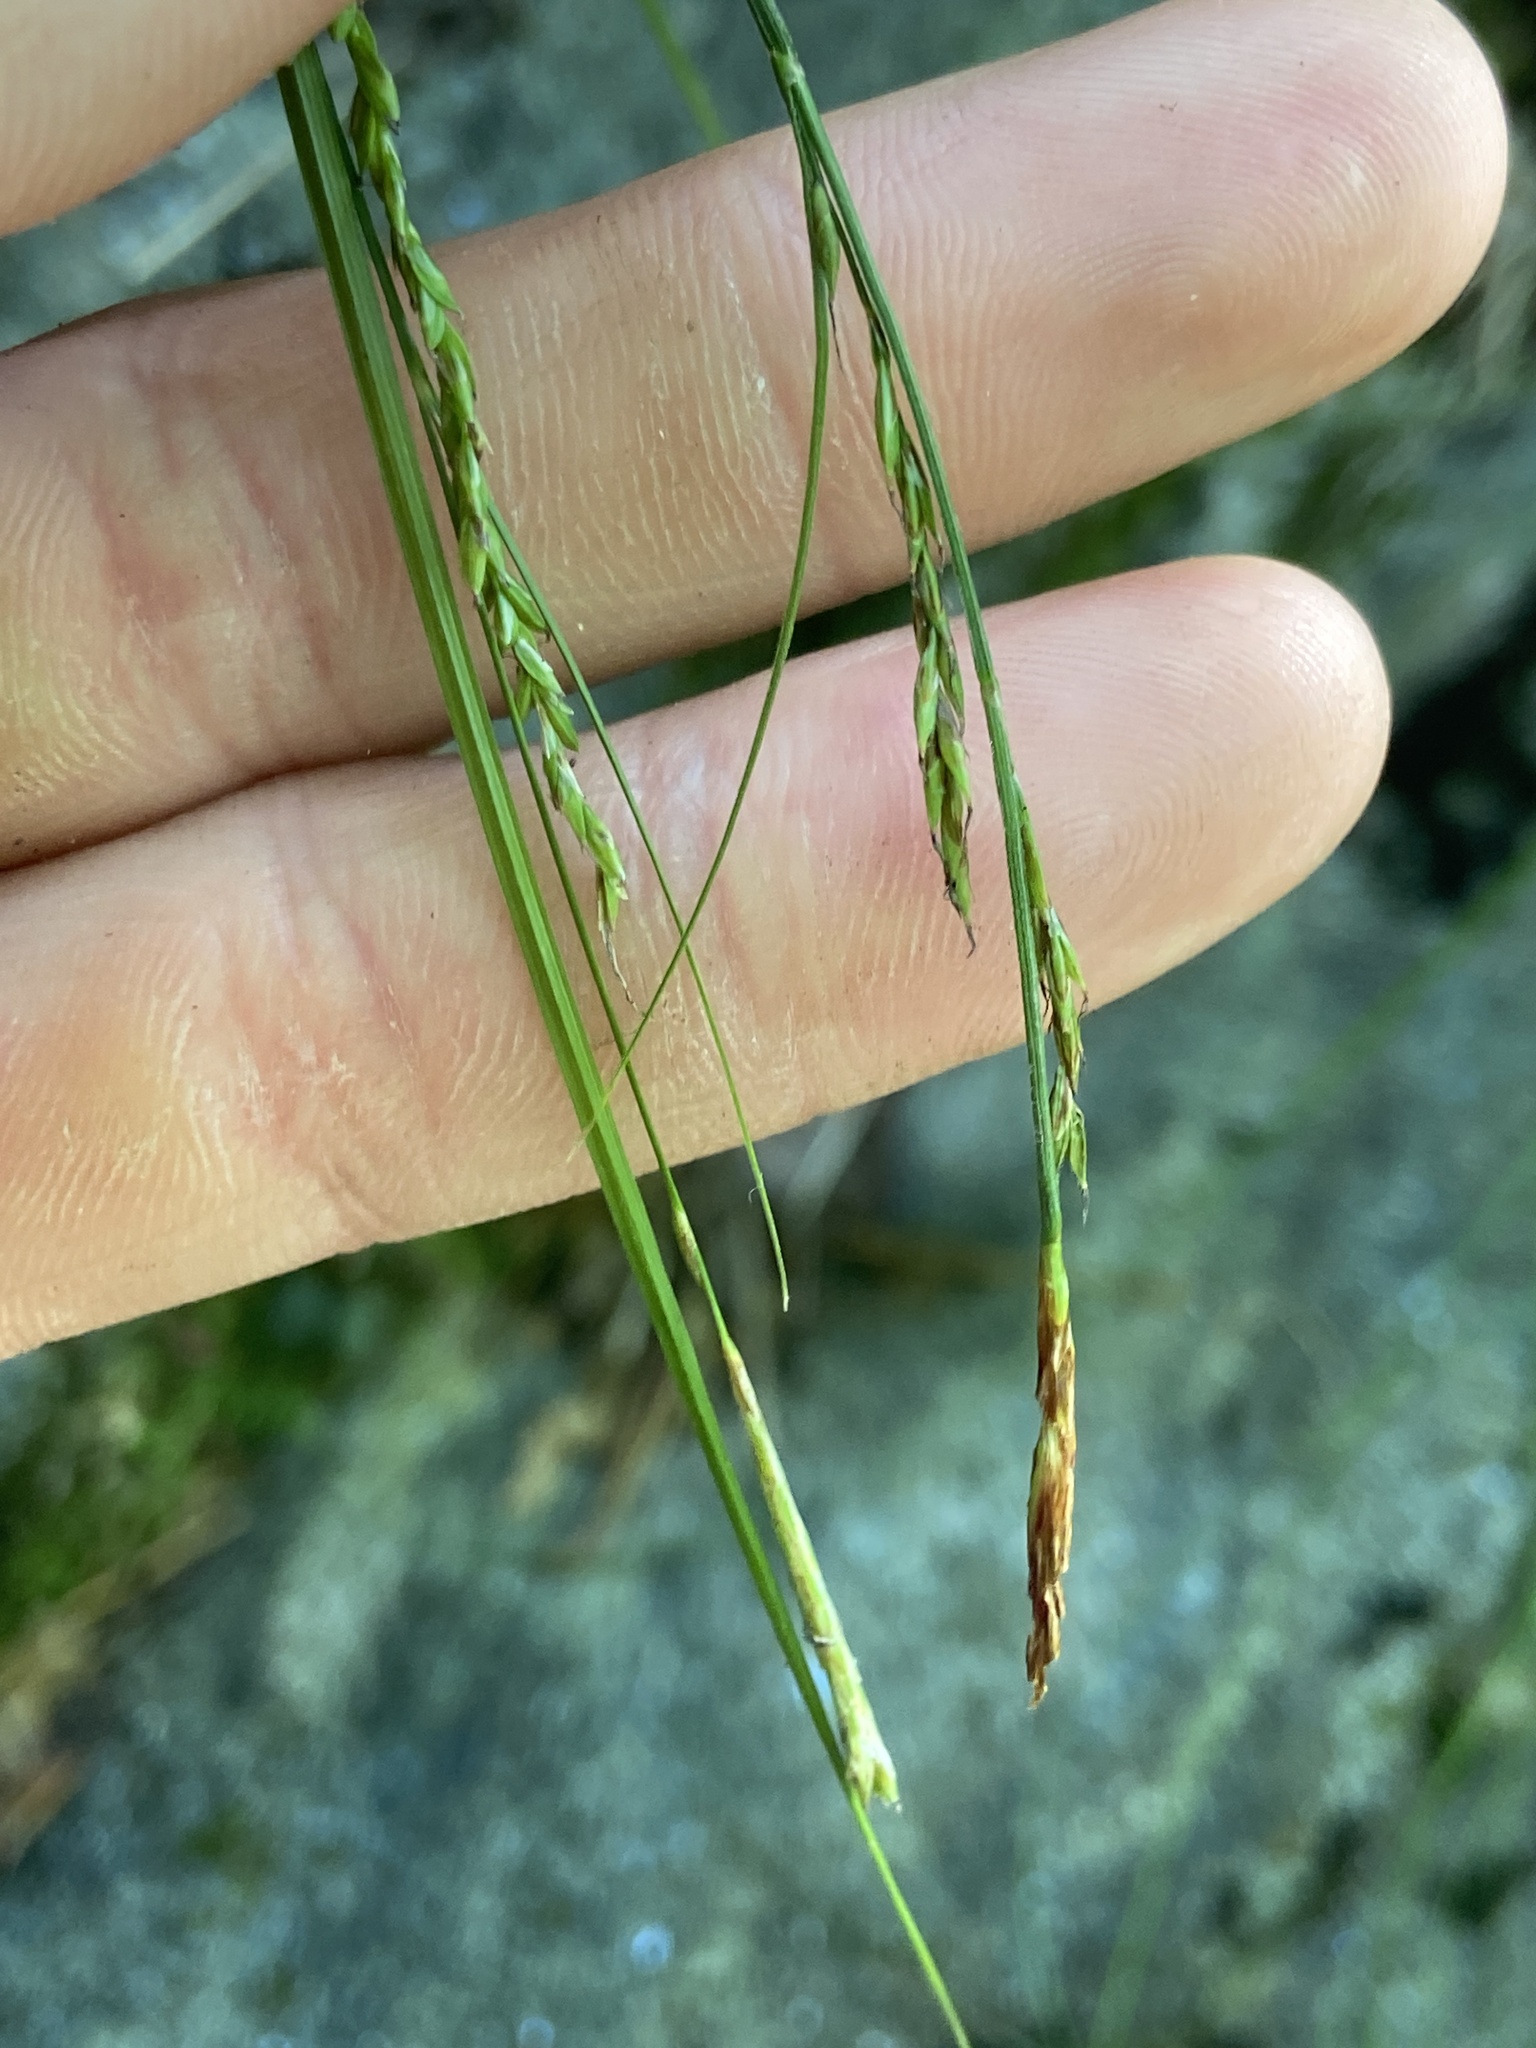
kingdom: Plantae
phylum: Tracheophyta
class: Liliopsida
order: Poales
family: Cyperaceae
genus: Carex
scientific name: Carex misera
